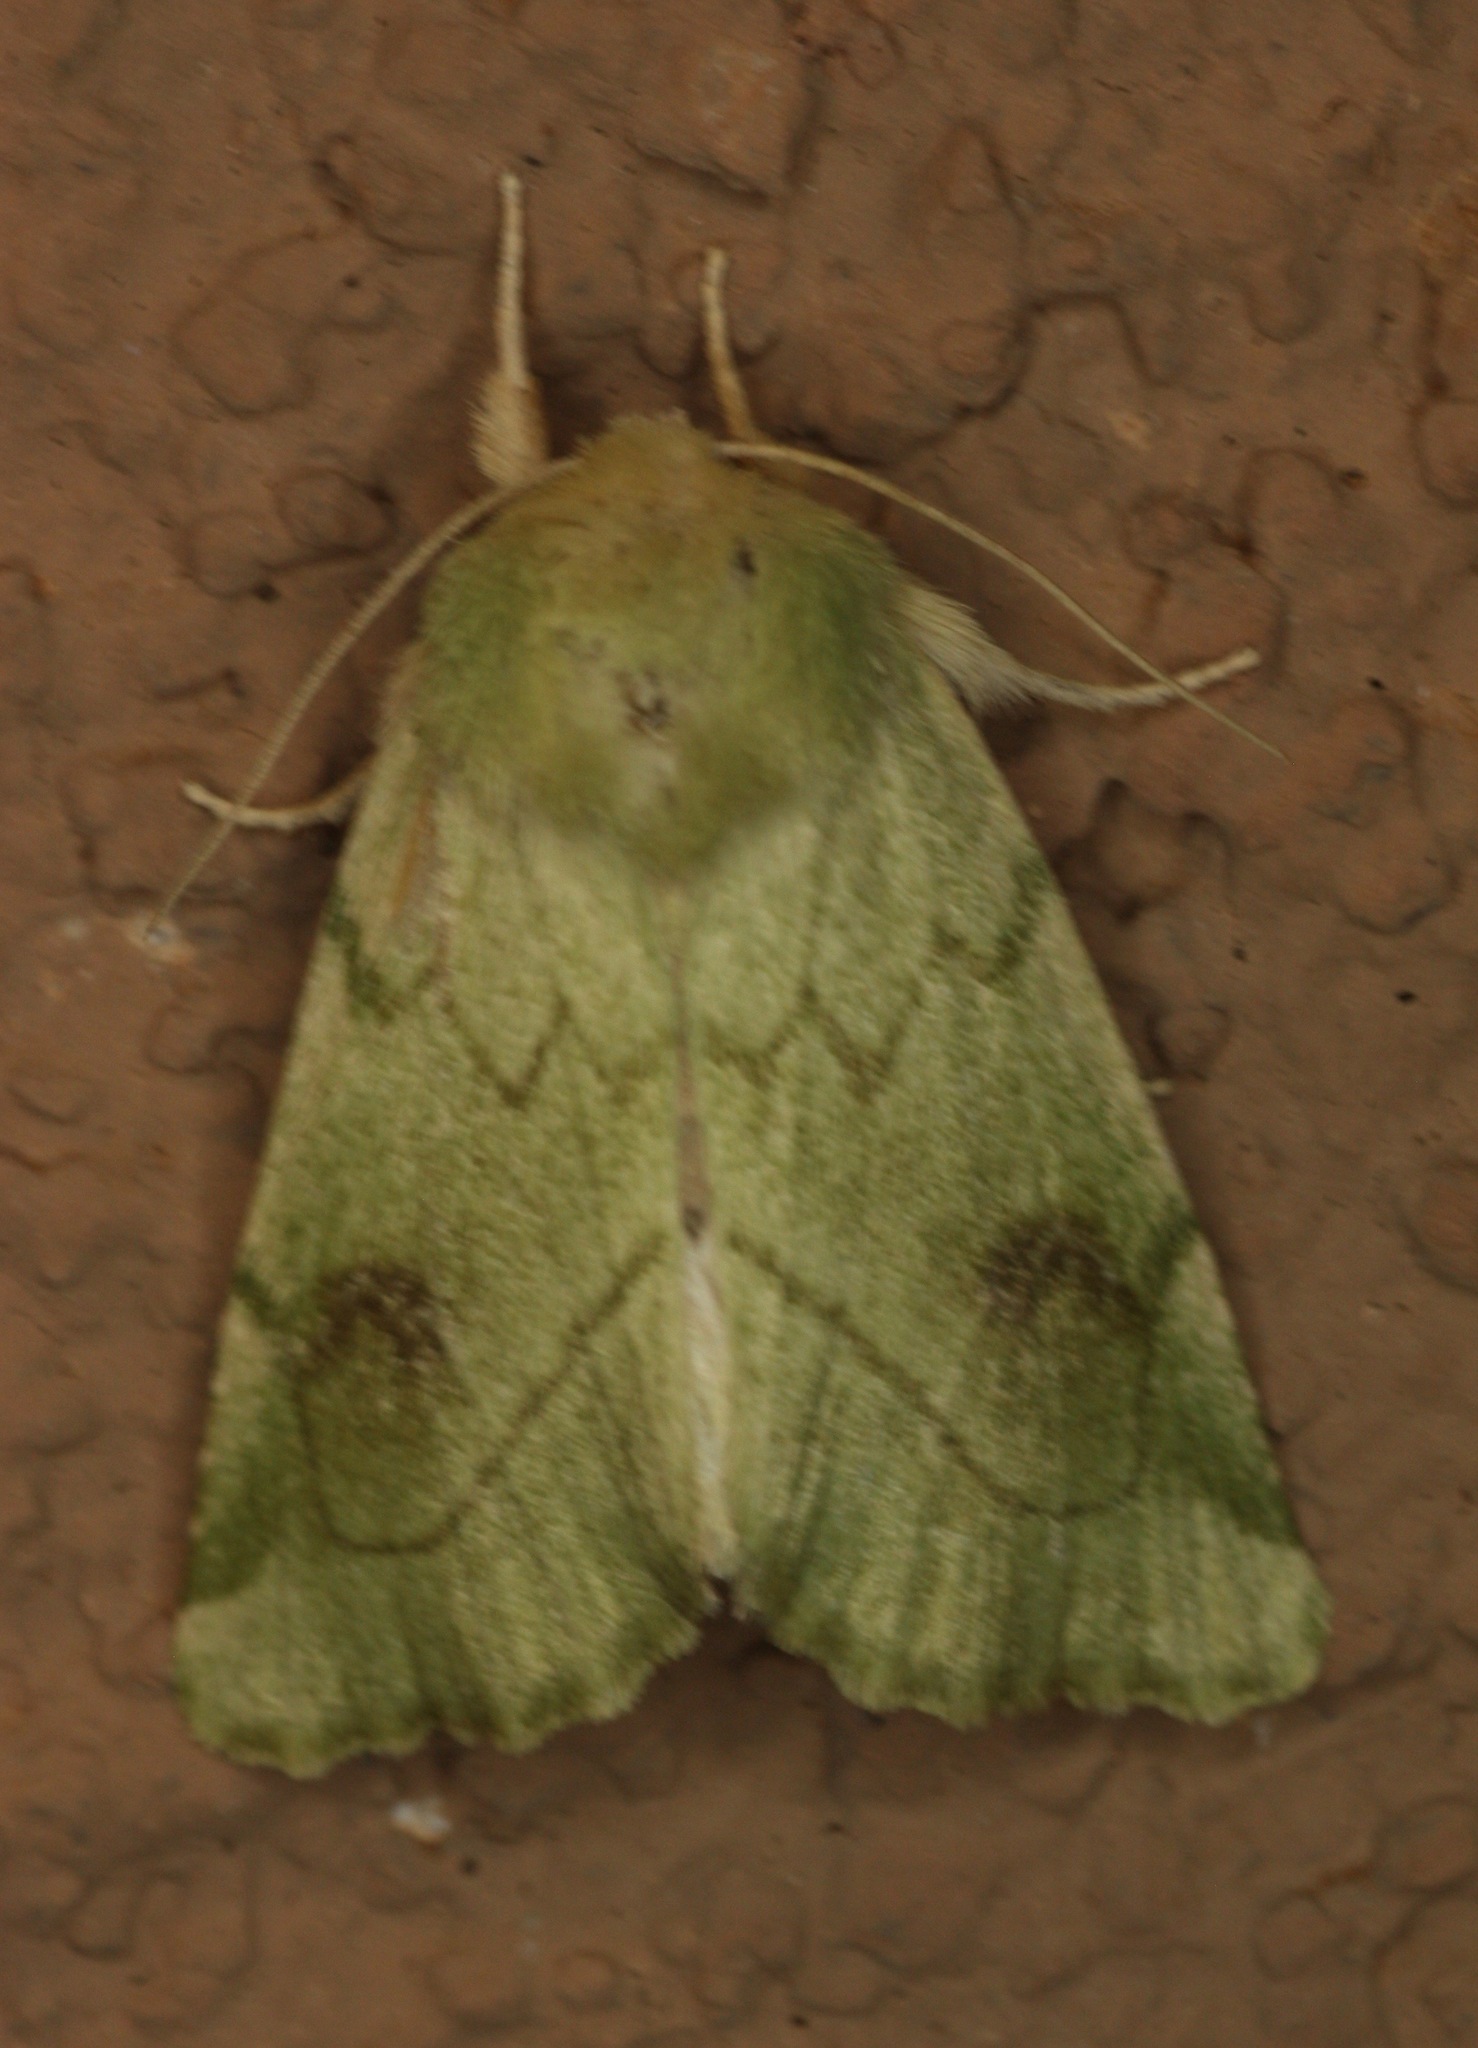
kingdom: Animalia
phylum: Arthropoda
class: Insecta
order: Lepidoptera
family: Noctuidae
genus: Zotheca
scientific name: Zotheca tranquilla
